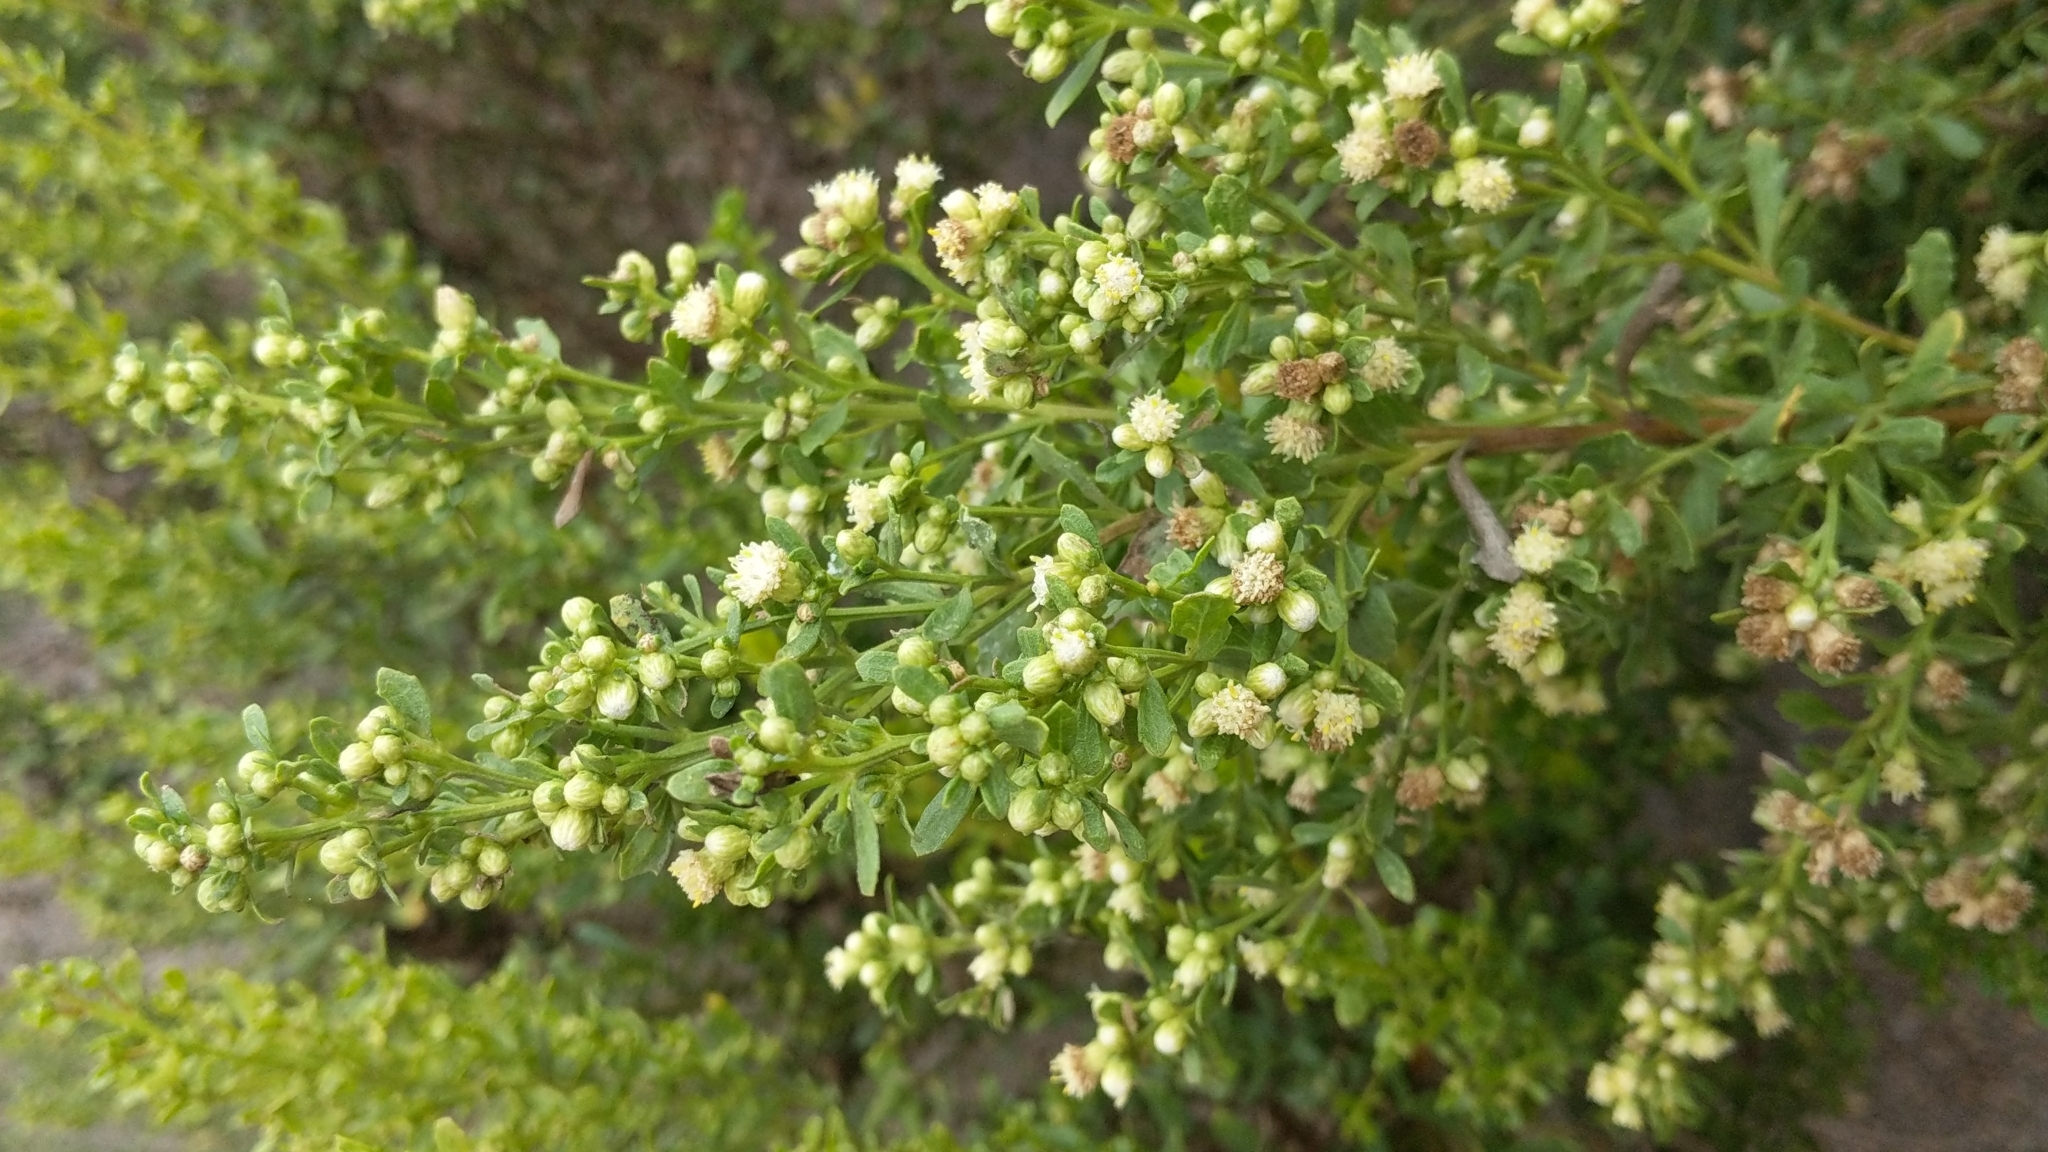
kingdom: Plantae
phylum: Tracheophyta
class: Magnoliopsida
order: Asterales
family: Asteraceae
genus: Baccharis
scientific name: Baccharis pilularis
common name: Coyotebrush
